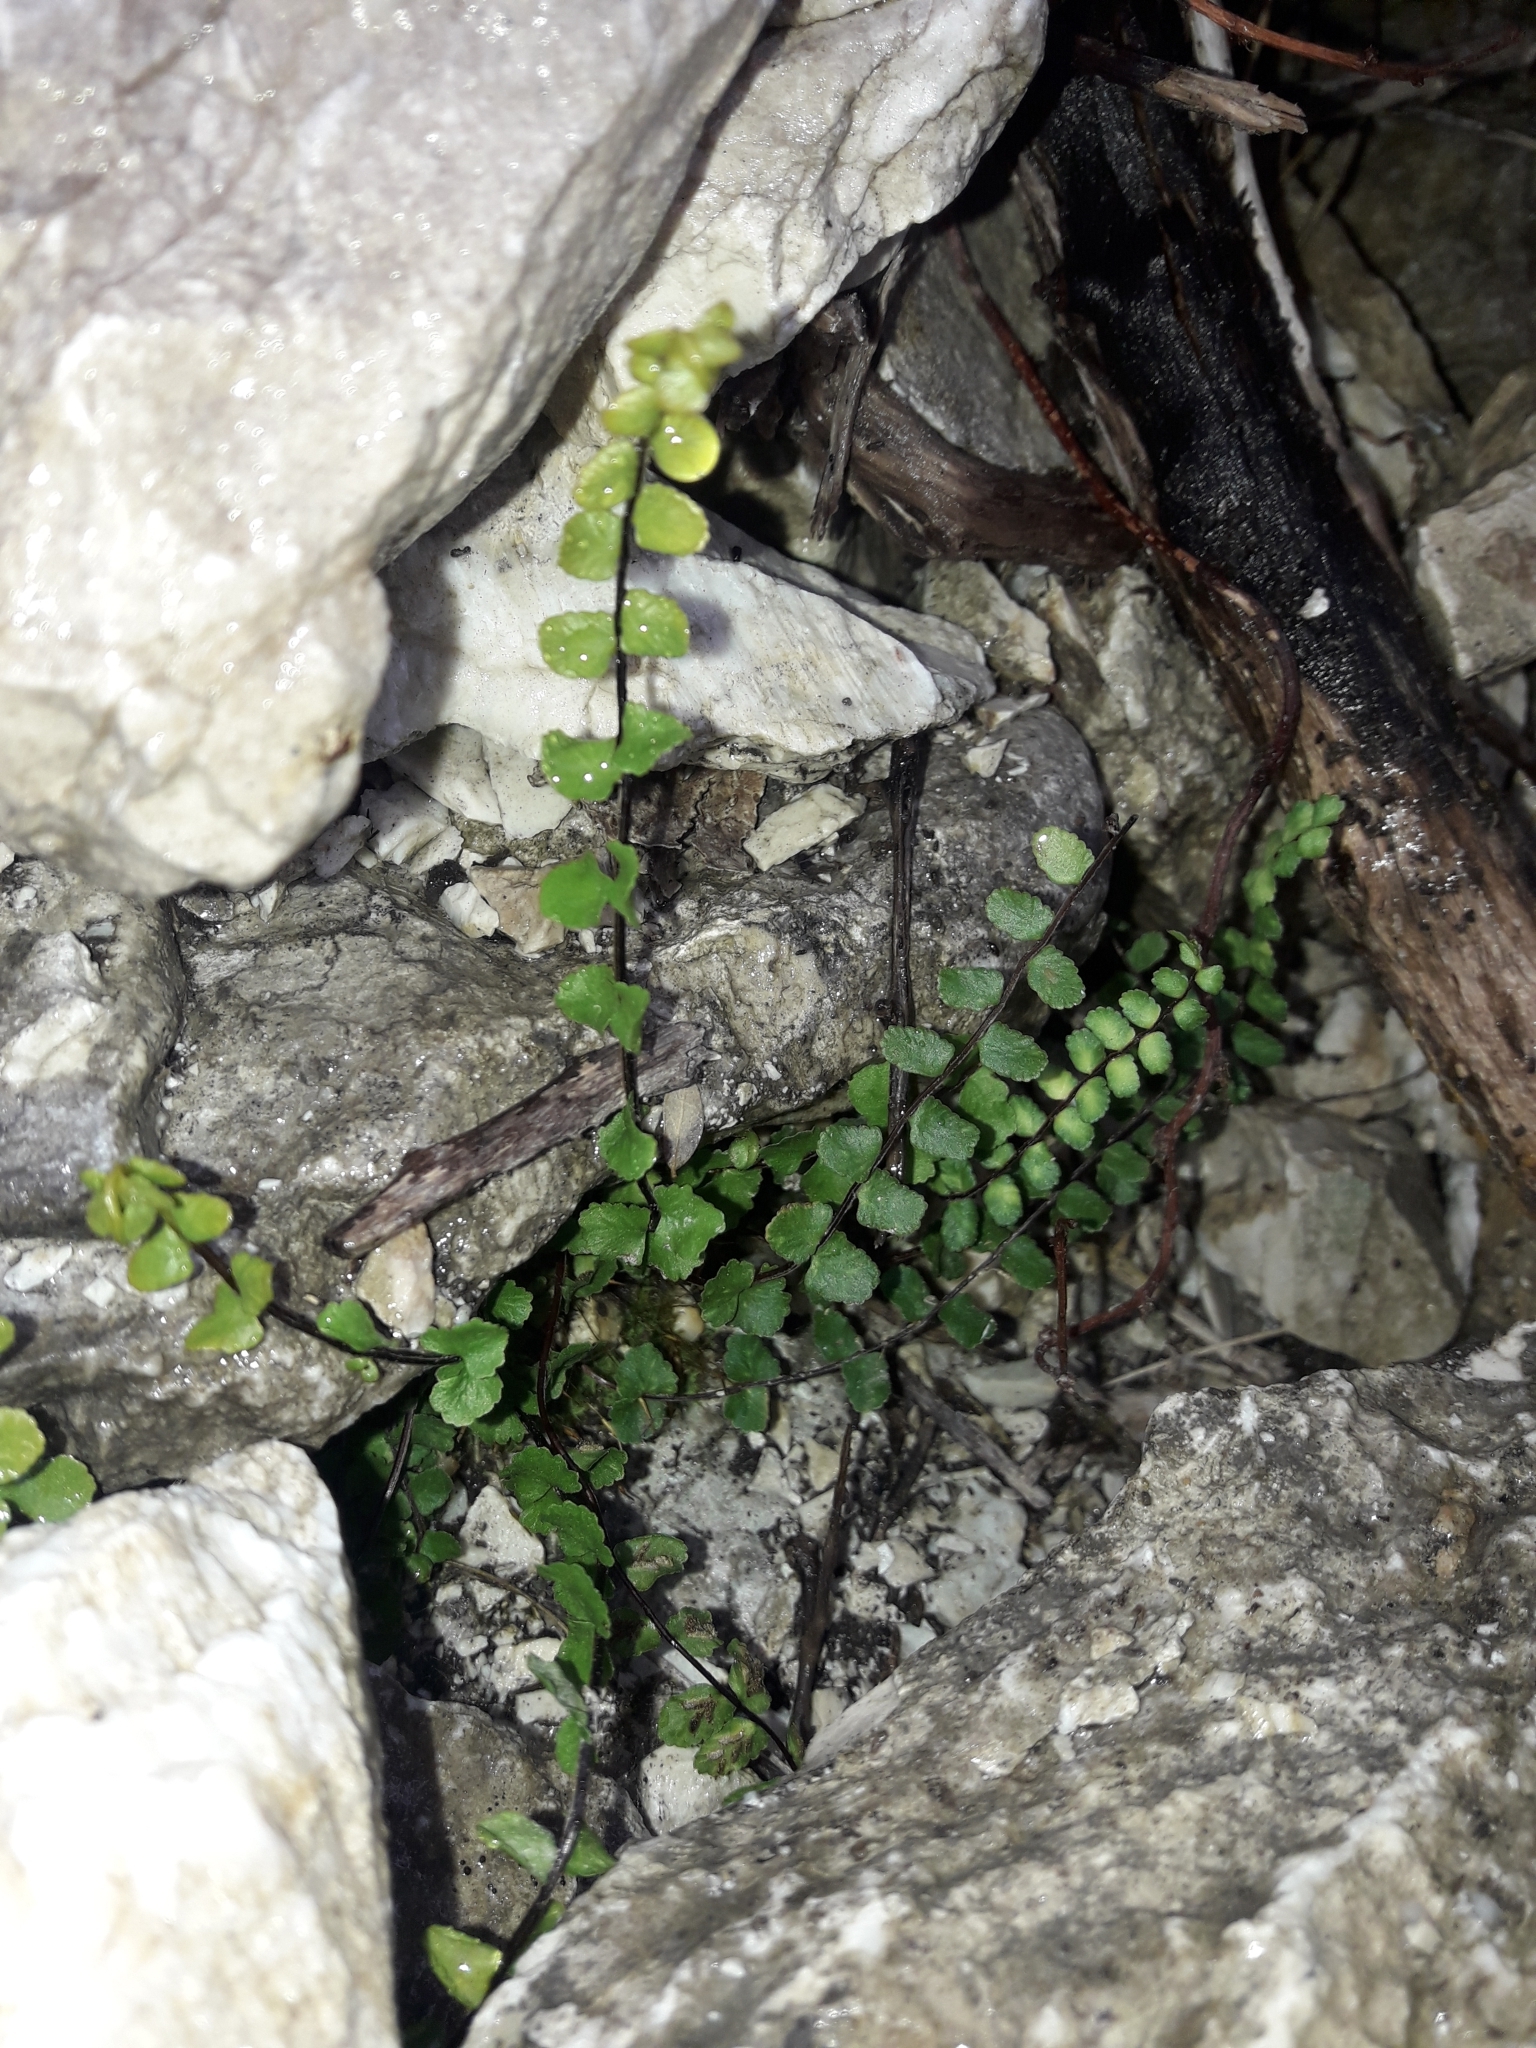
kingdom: Plantae
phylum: Tracheophyta
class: Polypodiopsida
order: Polypodiales
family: Aspleniaceae
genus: Asplenium
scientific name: Asplenium trichomanes
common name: Maidenhair spleenwort
